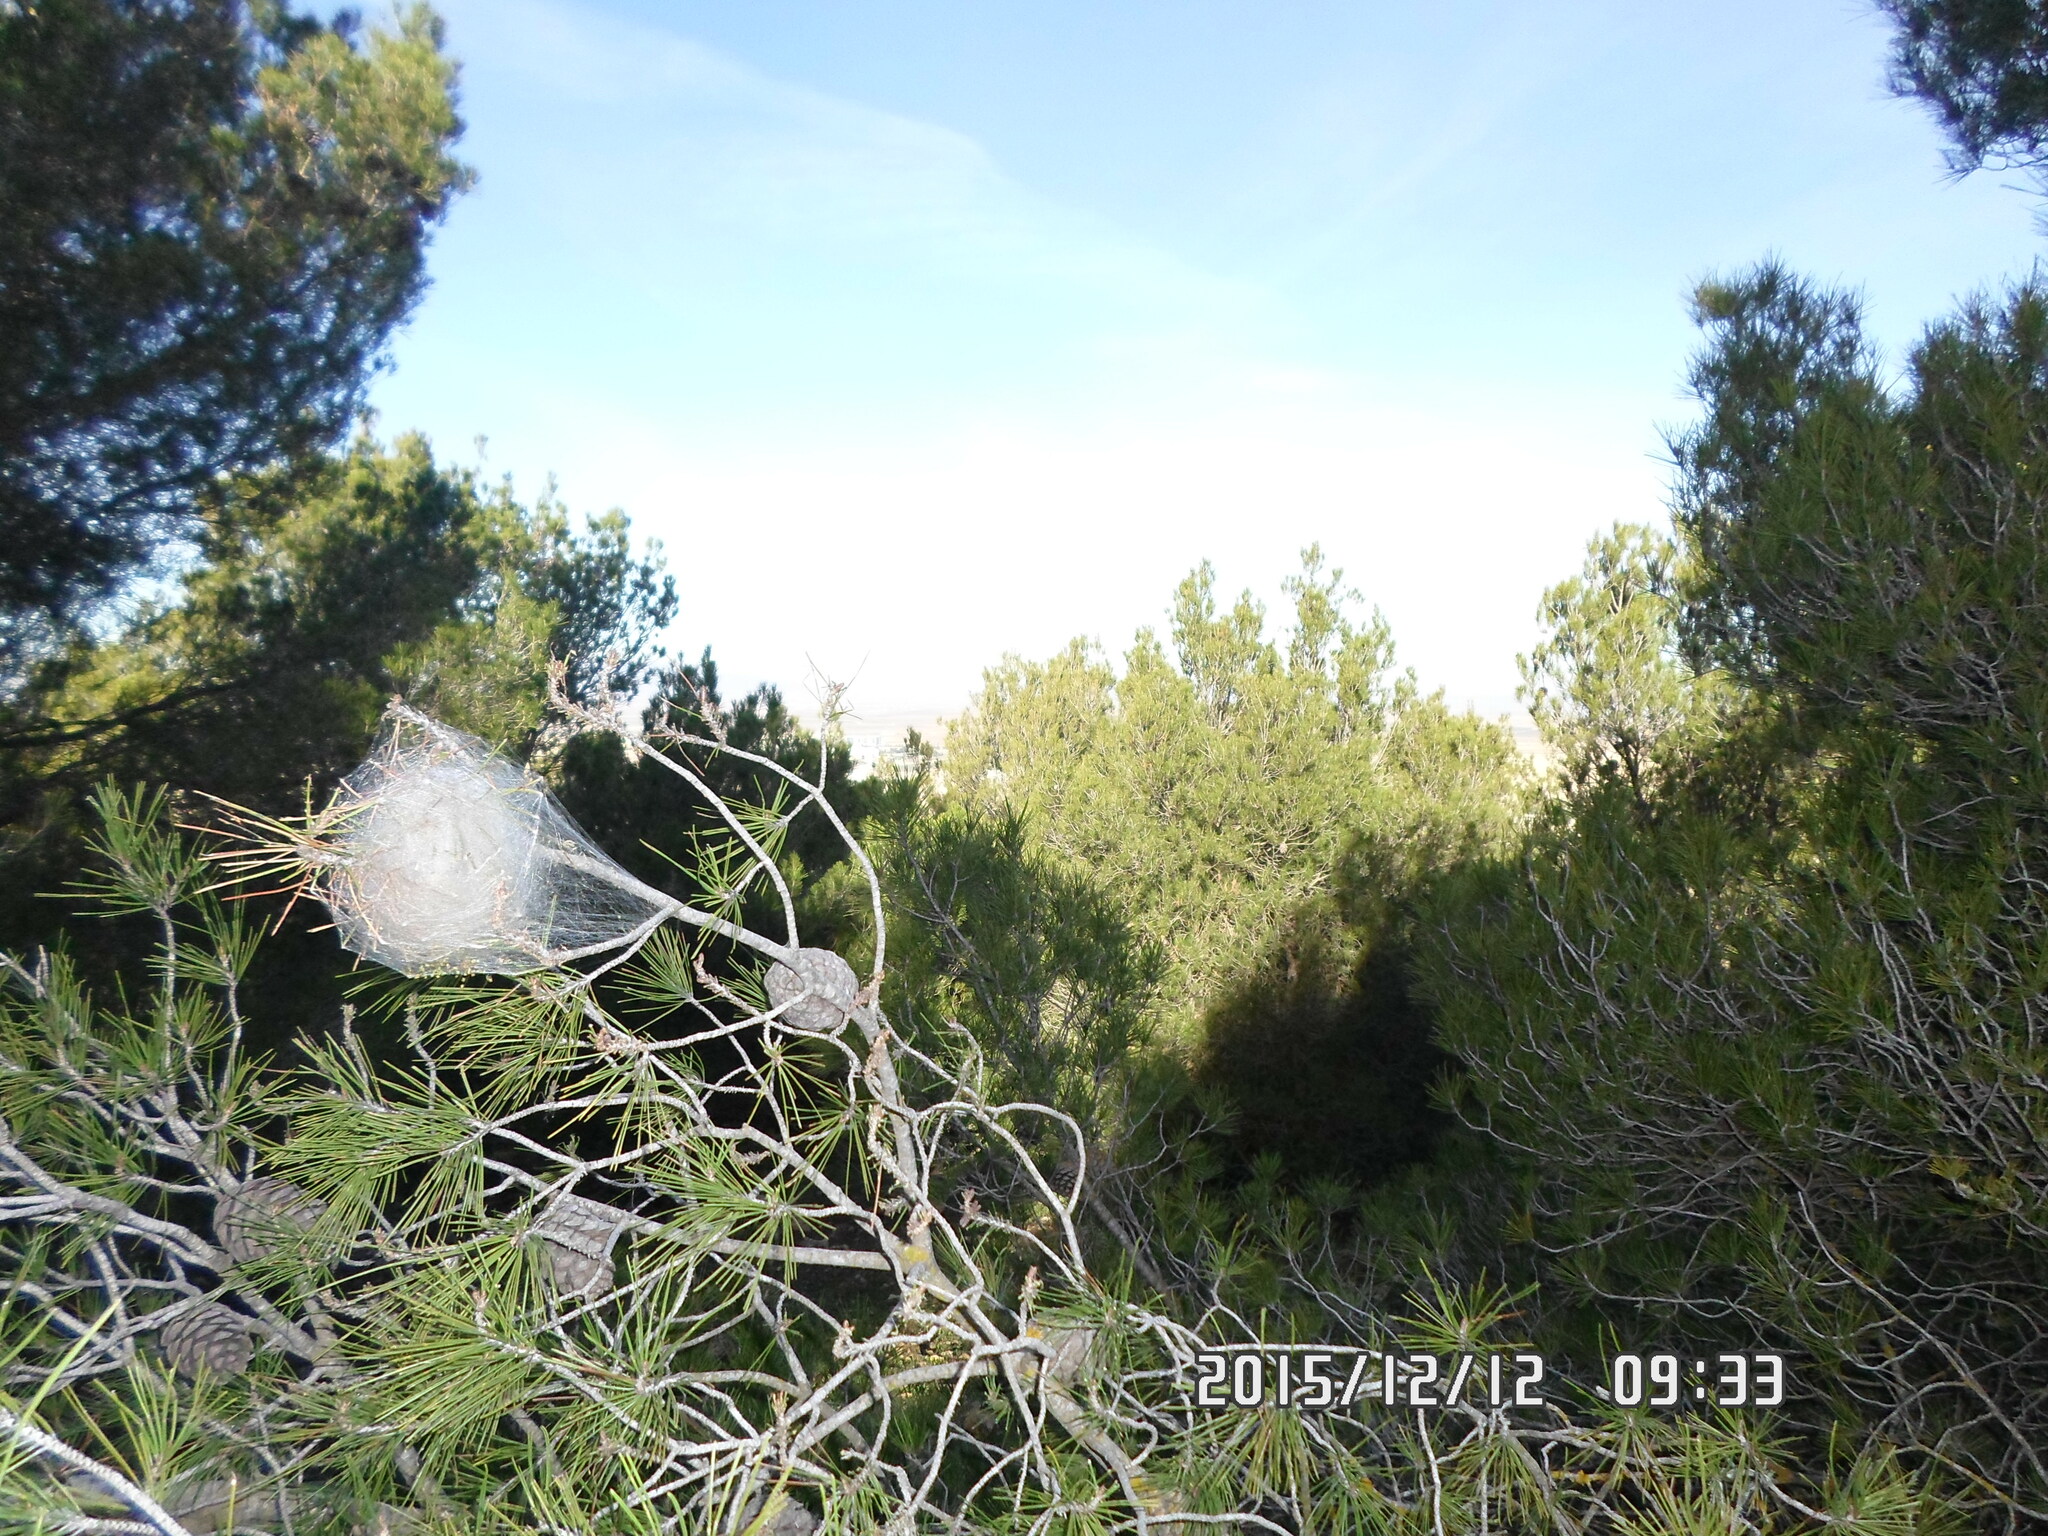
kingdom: Animalia
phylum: Arthropoda
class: Insecta
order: Lepidoptera
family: Notodontidae
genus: Thaumetopoea
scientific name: Thaumetopoea pityocampa
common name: Pine processionary
